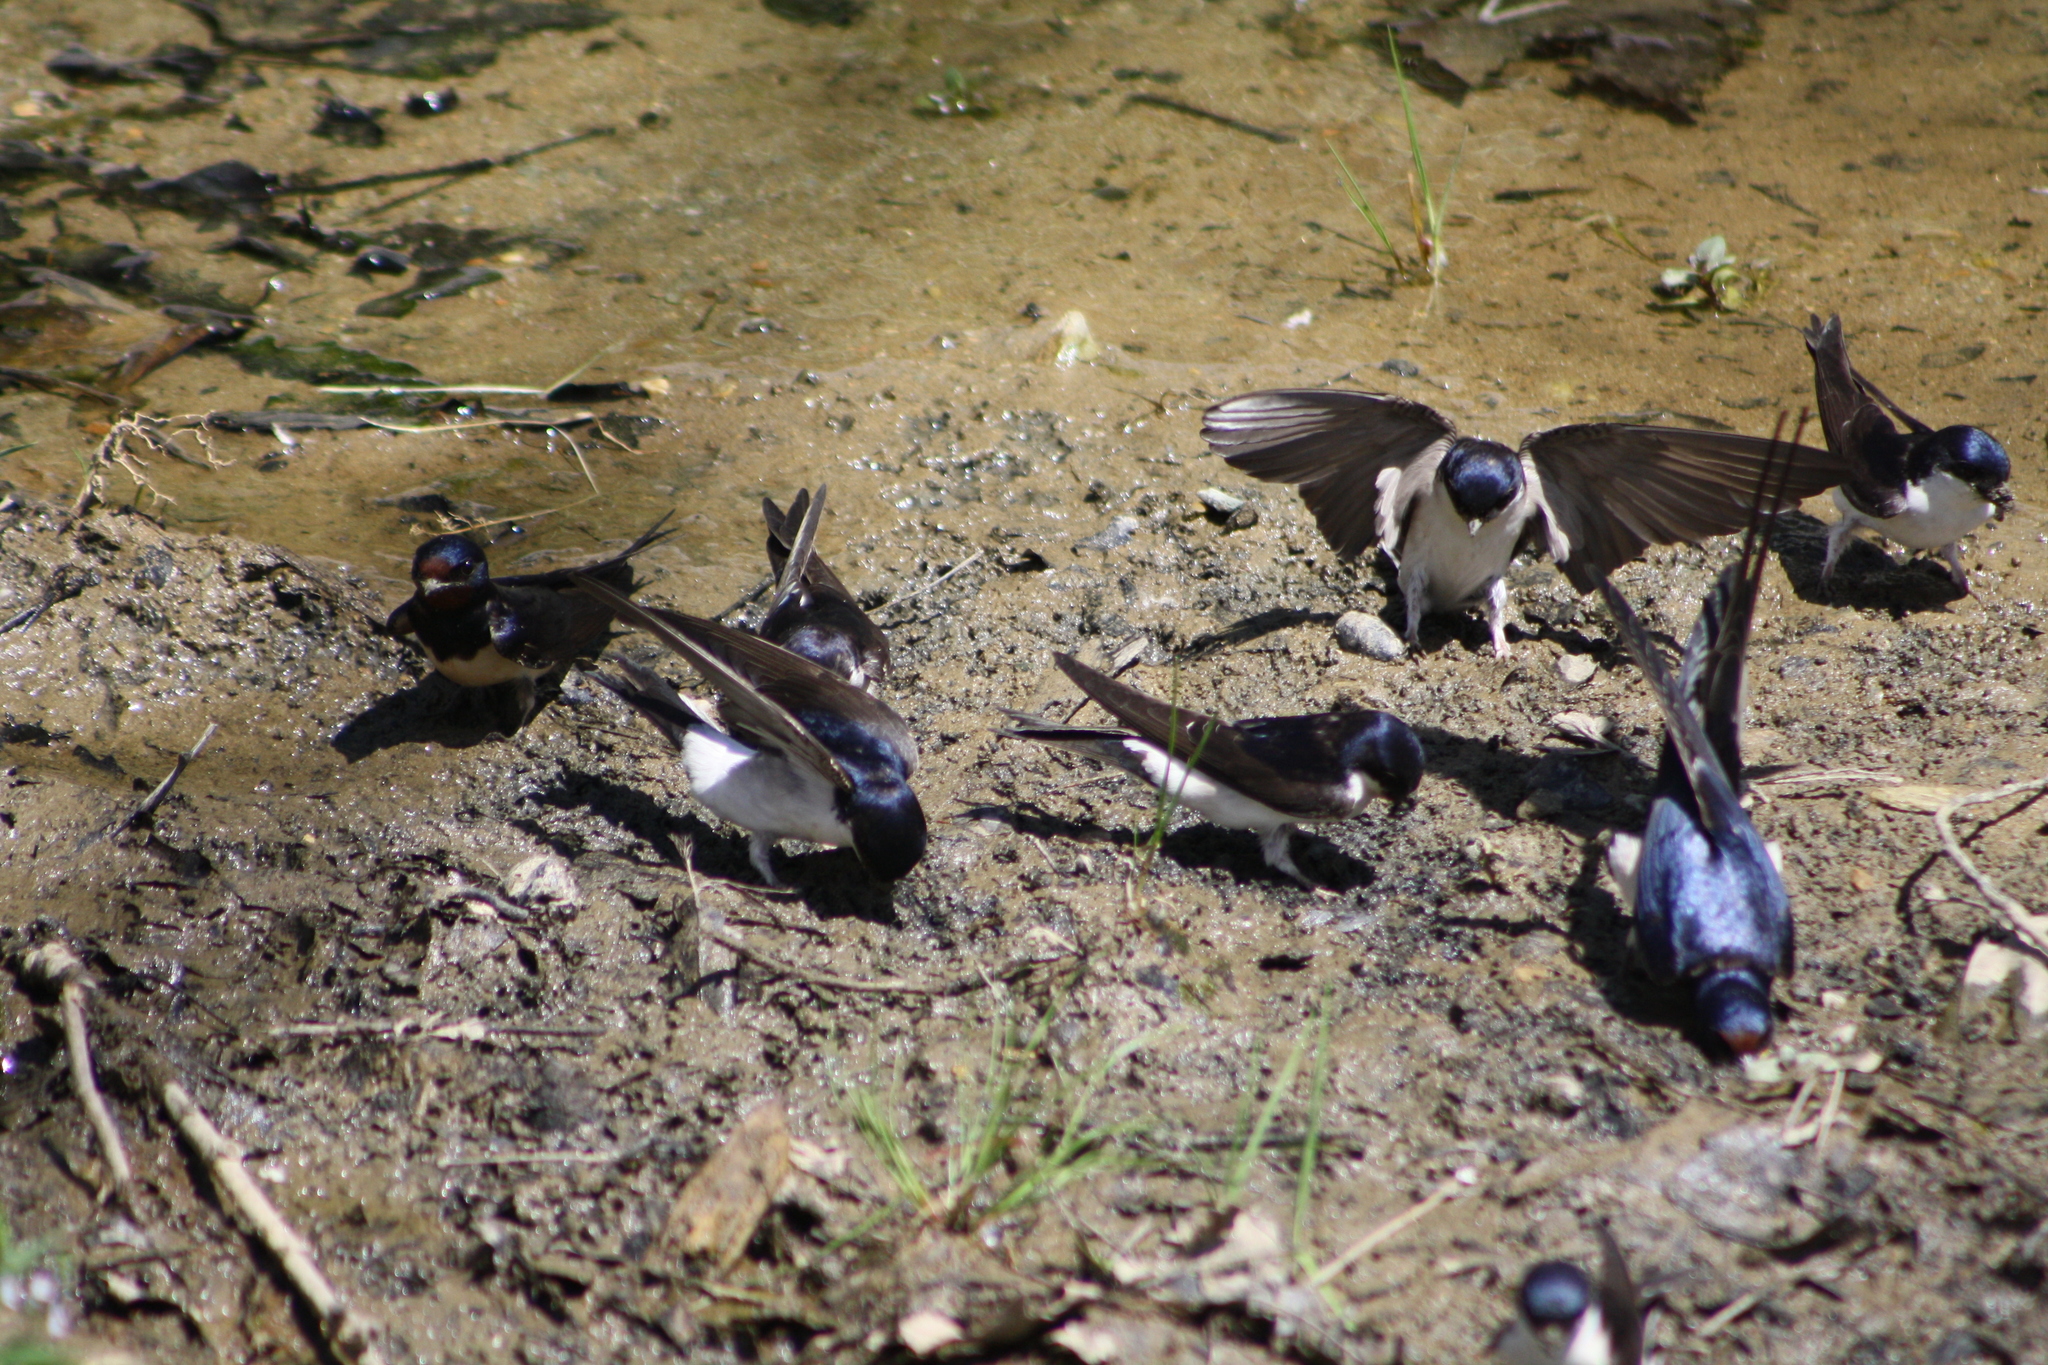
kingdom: Animalia
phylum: Chordata
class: Aves
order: Passeriformes
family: Hirundinidae
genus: Delichon
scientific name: Delichon urbicum
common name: Common house martin
